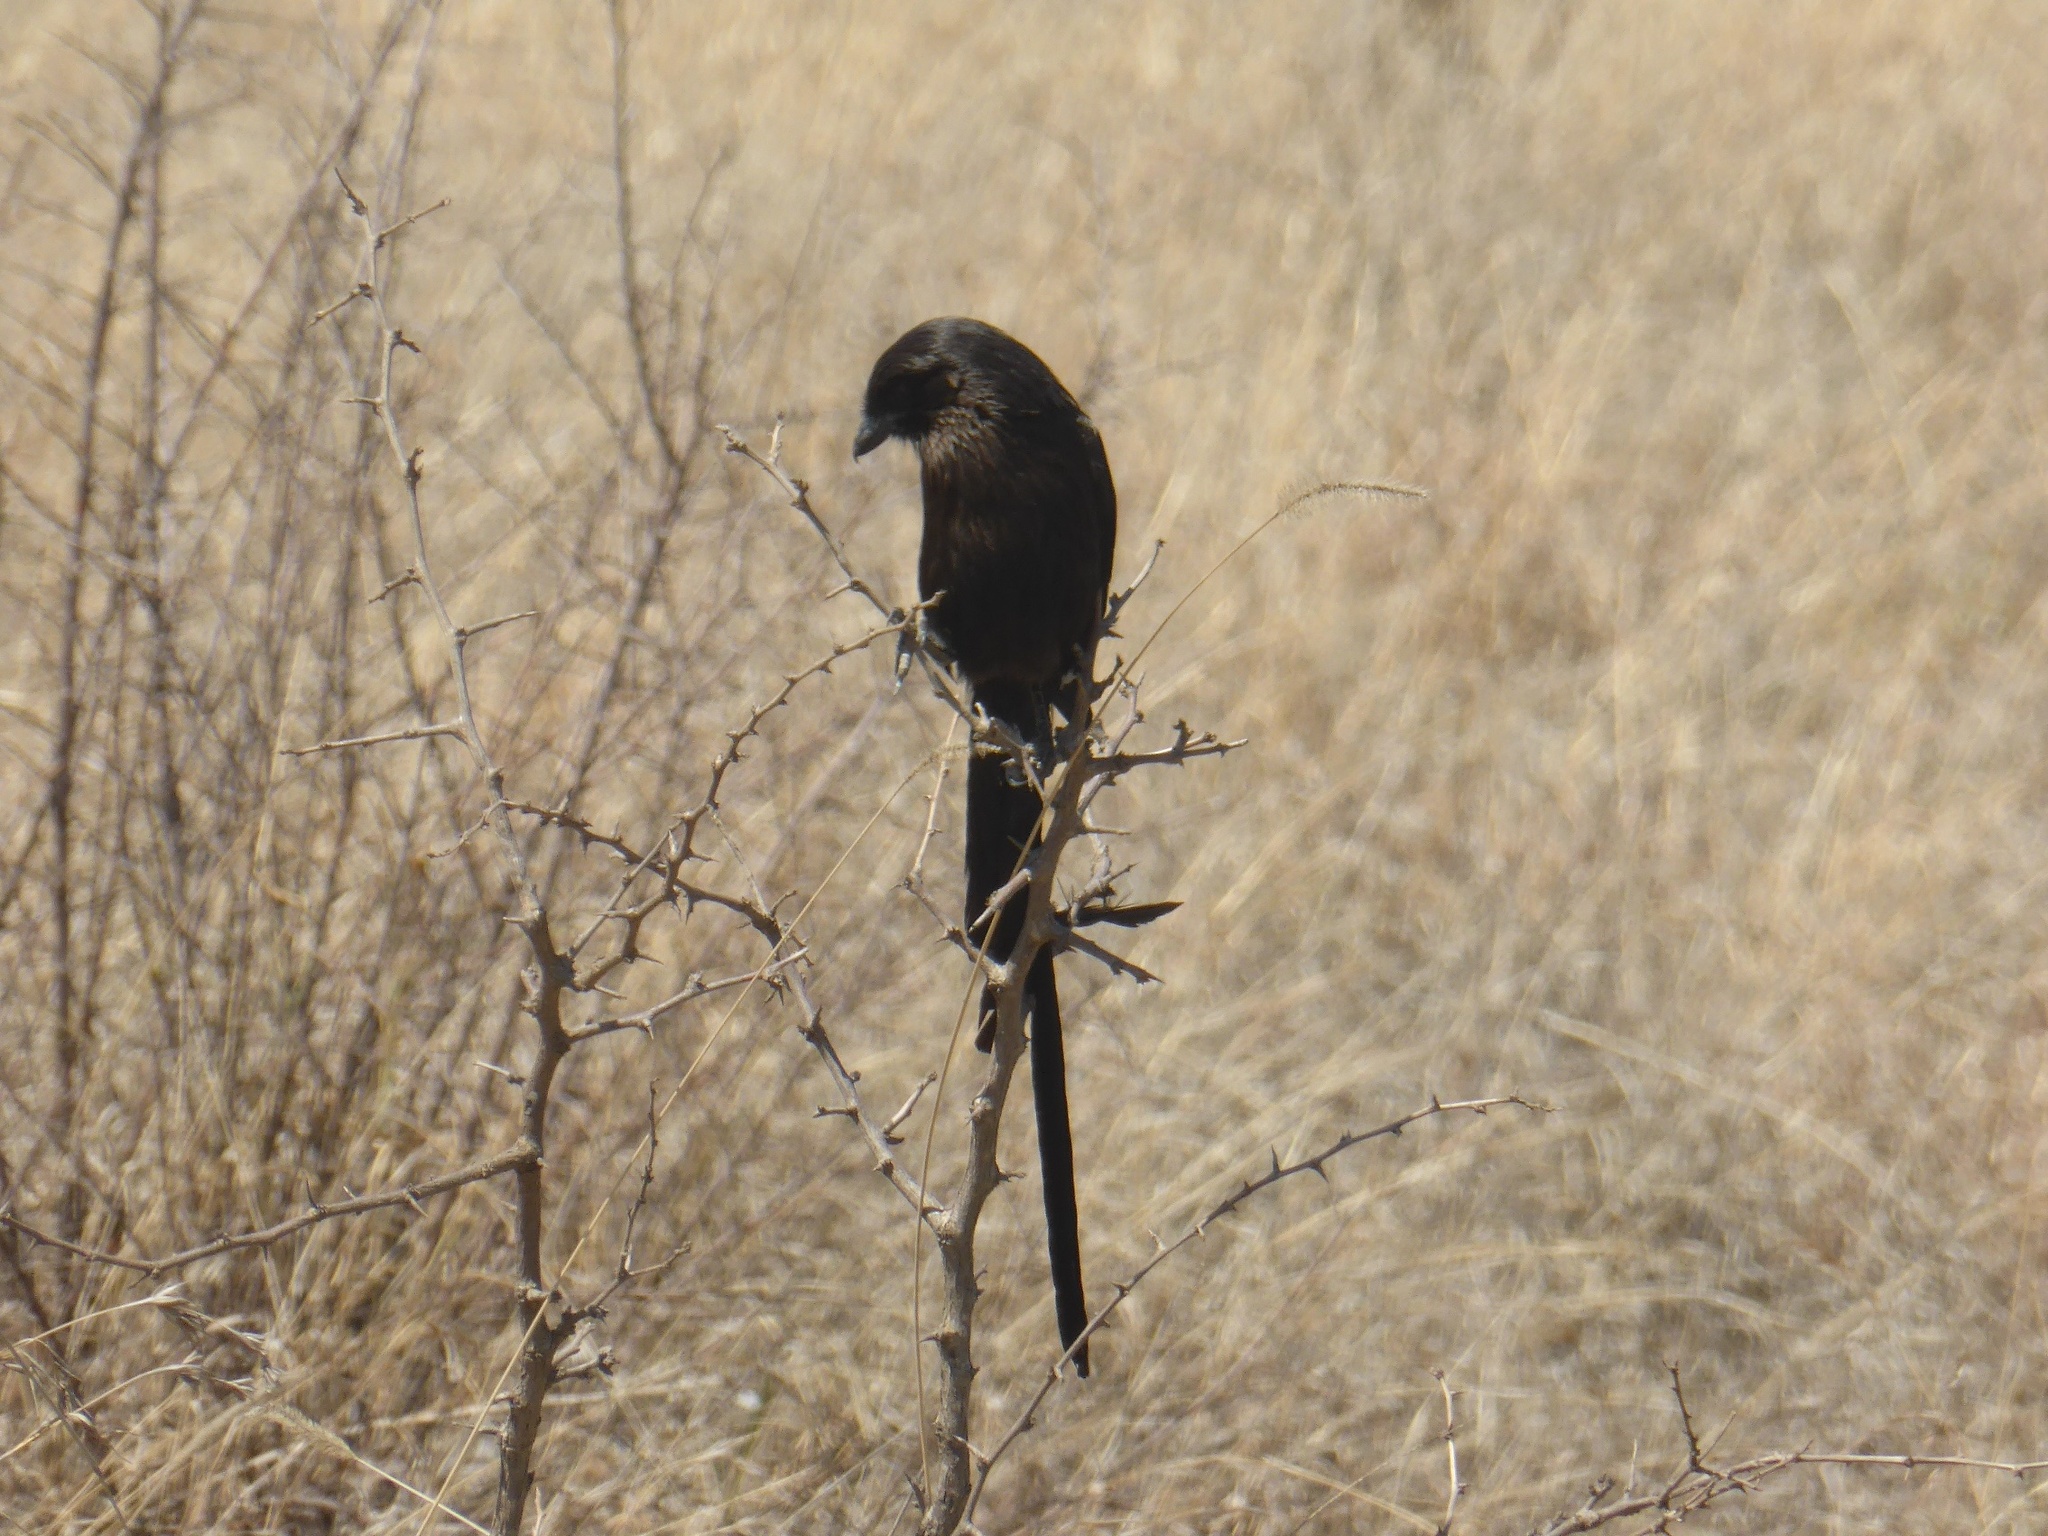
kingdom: Animalia
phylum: Chordata
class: Aves
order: Passeriformes
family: Laniidae
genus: Urolestes
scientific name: Urolestes melanoleucus
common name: Magpie shrike
